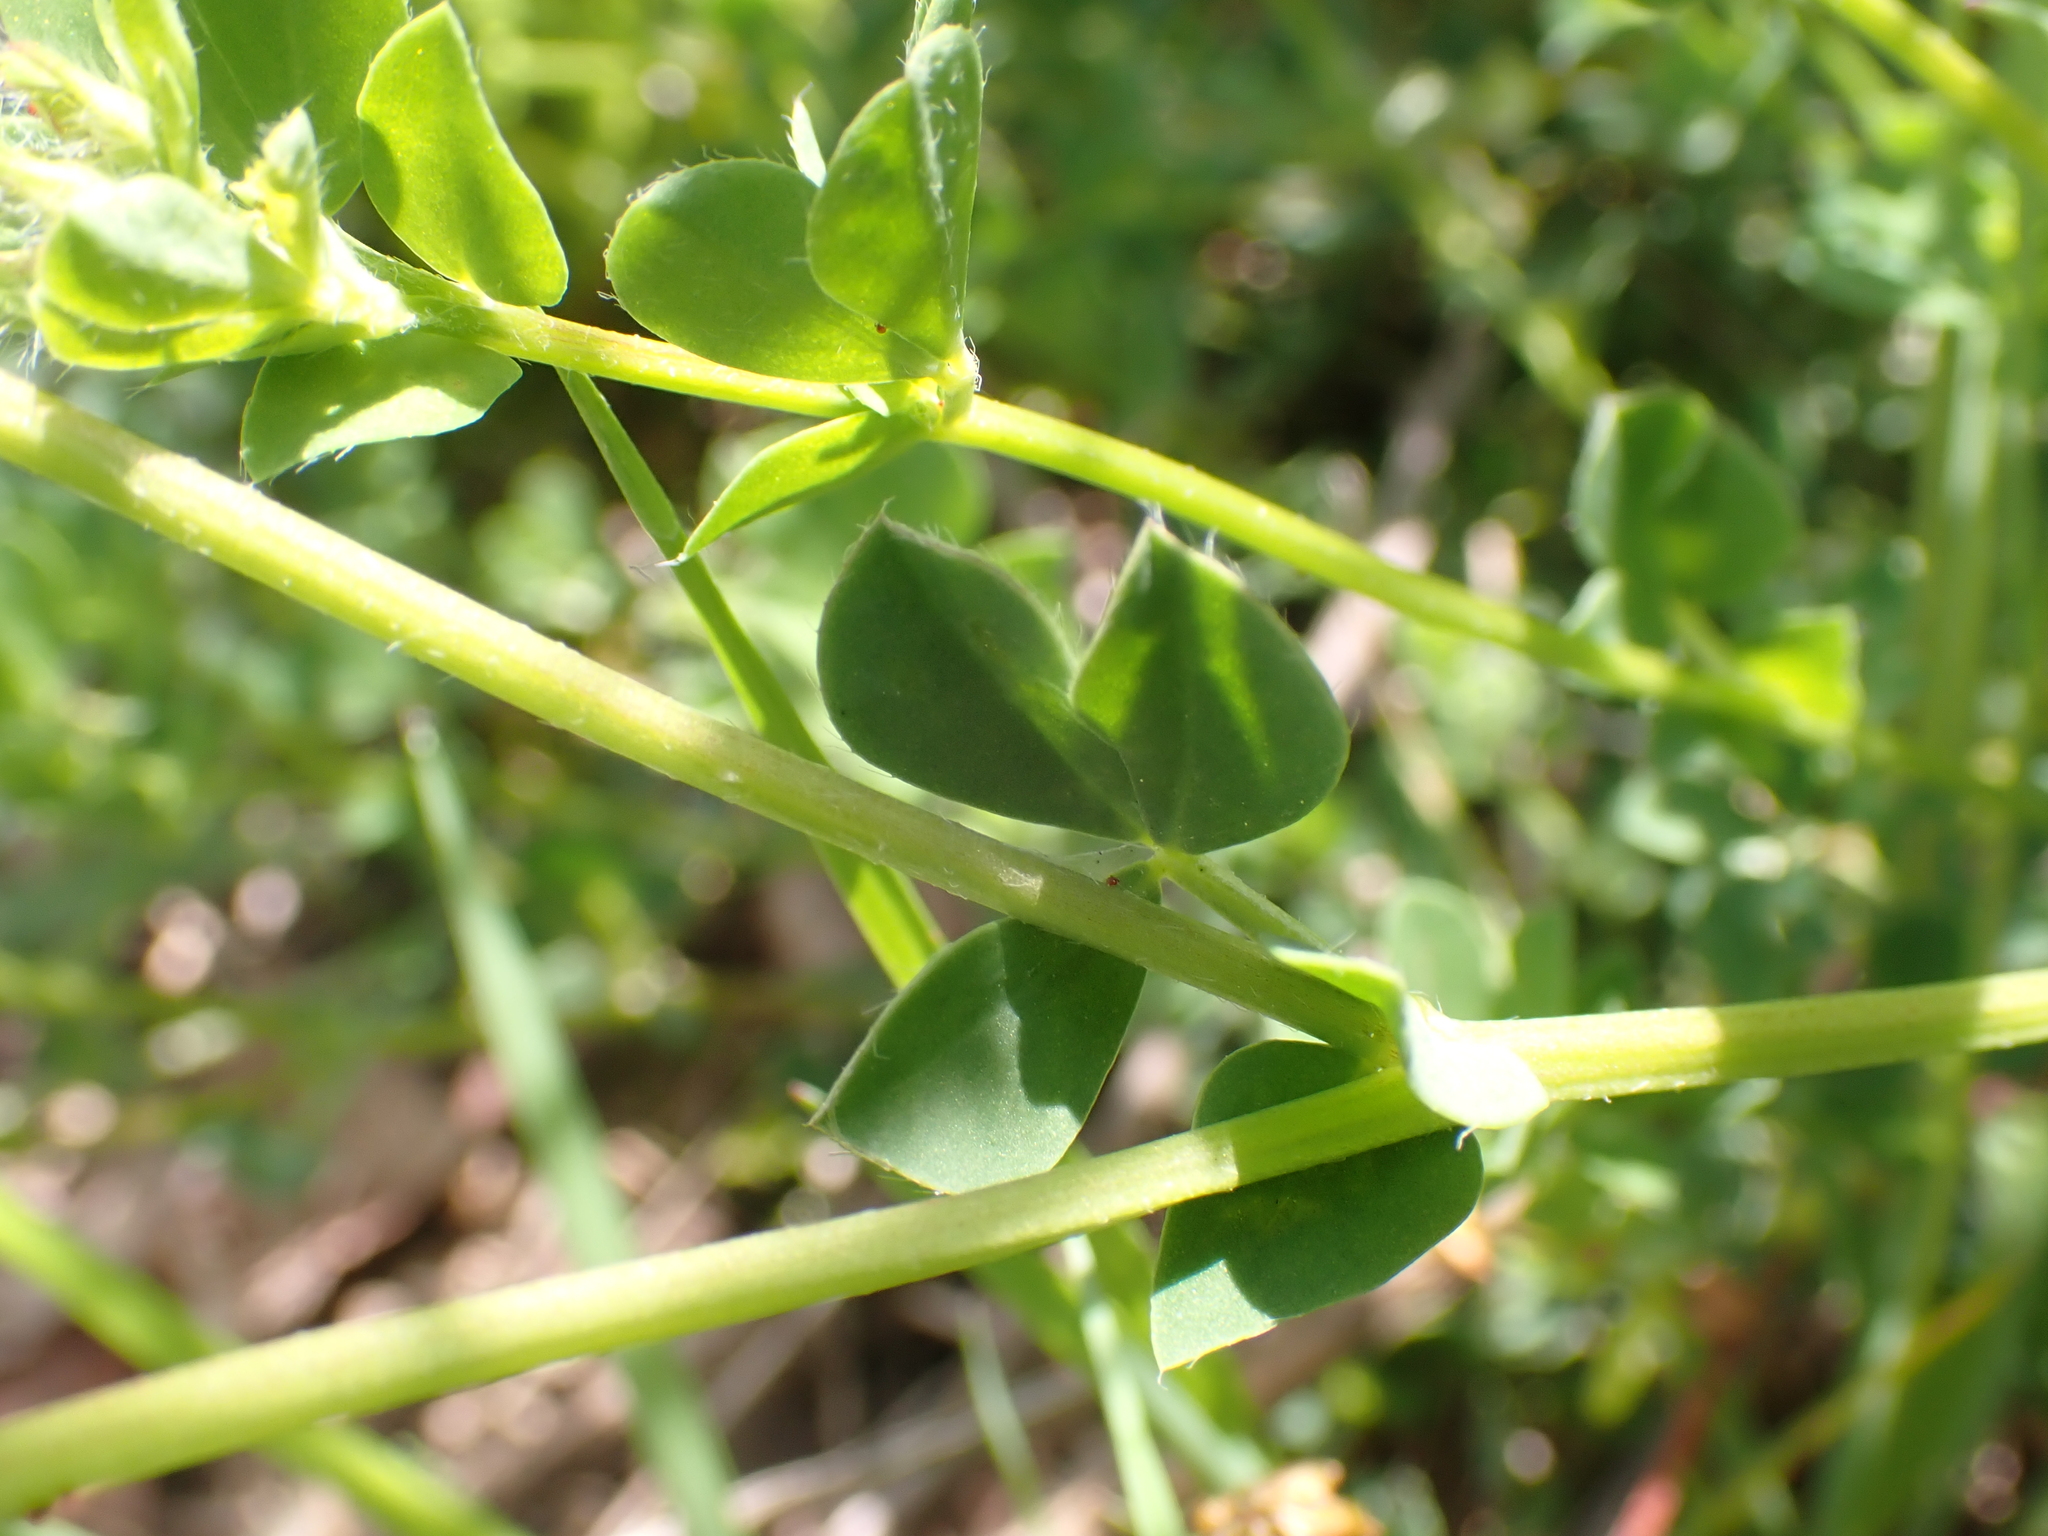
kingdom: Plantae
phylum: Tracheophyta
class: Magnoliopsida
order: Fabales
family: Fabaceae
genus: Lotus
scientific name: Lotus corniculatus
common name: Common bird's-foot-trefoil
